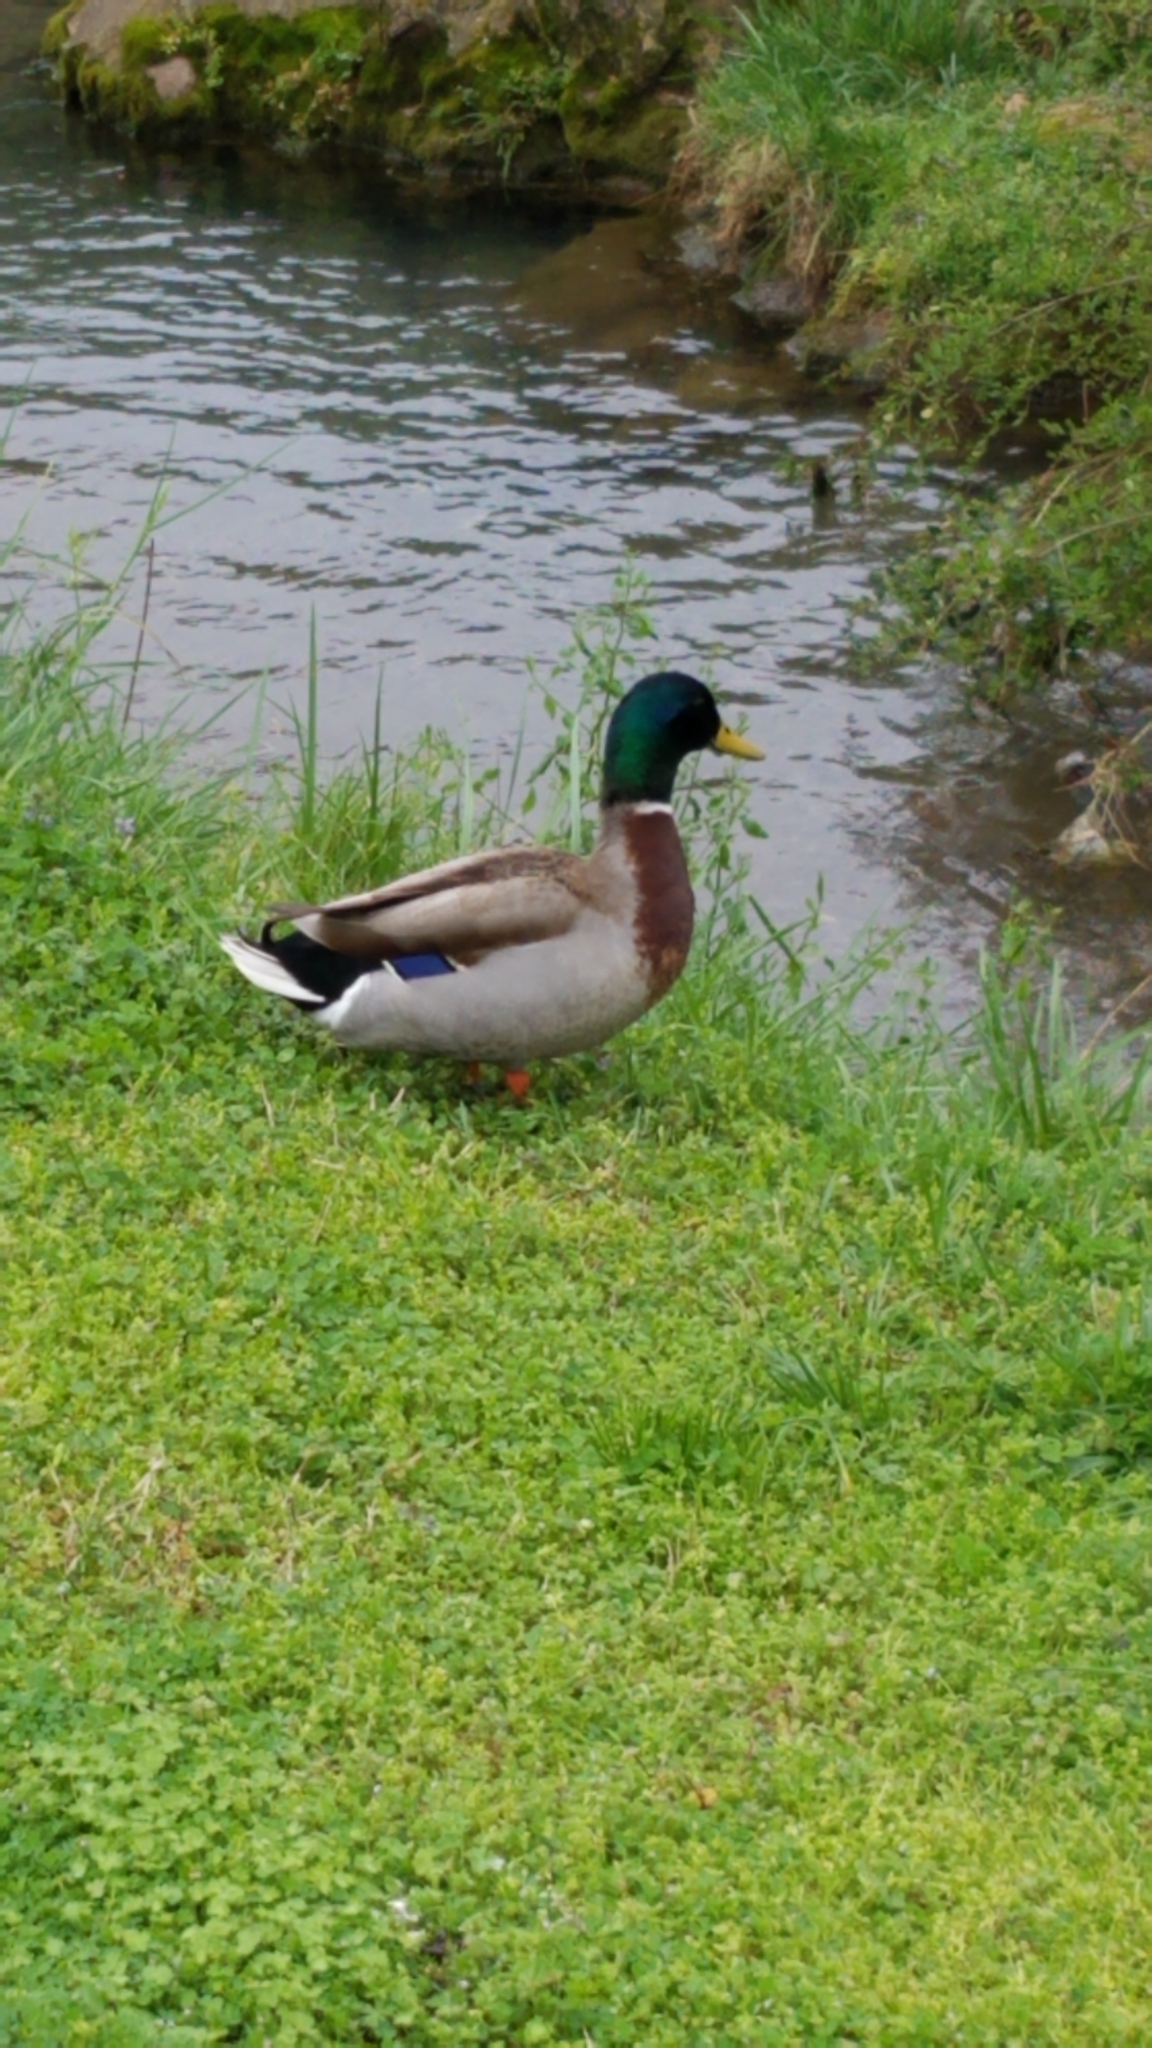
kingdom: Animalia
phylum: Chordata
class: Aves
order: Anseriformes
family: Anatidae
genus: Anas
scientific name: Anas platyrhynchos
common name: Mallard
